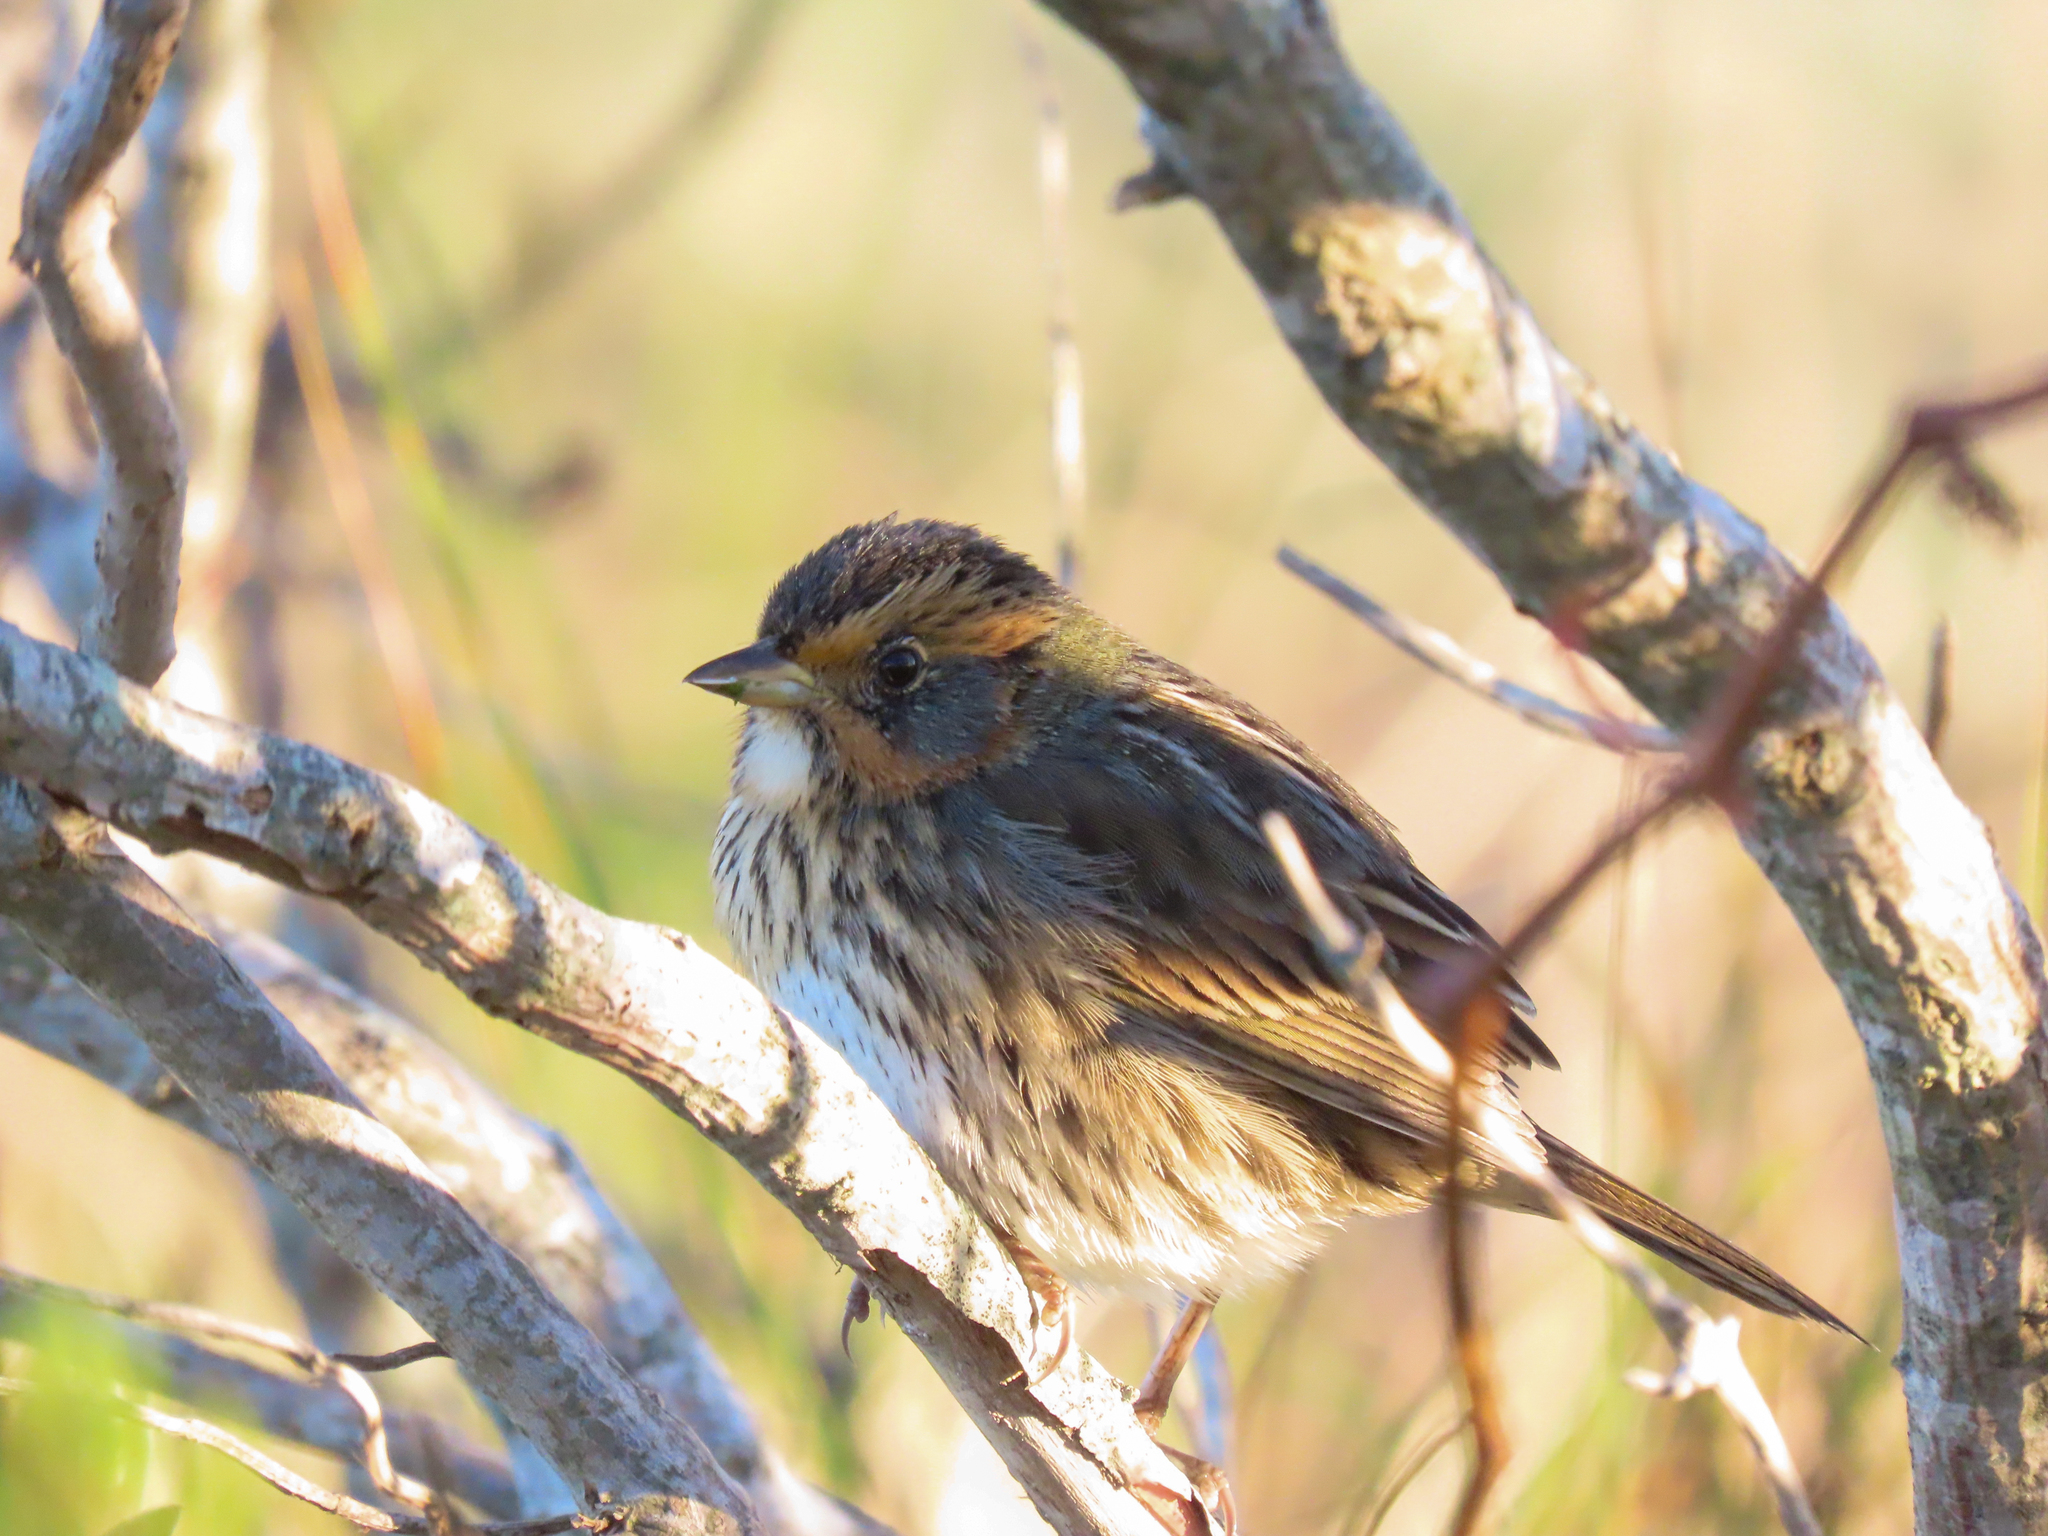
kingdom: Animalia
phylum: Chordata
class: Aves
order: Passeriformes
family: Passerellidae
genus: Ammospiza
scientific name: Ammospiza caudacuta
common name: Saltmarsh sparrow
